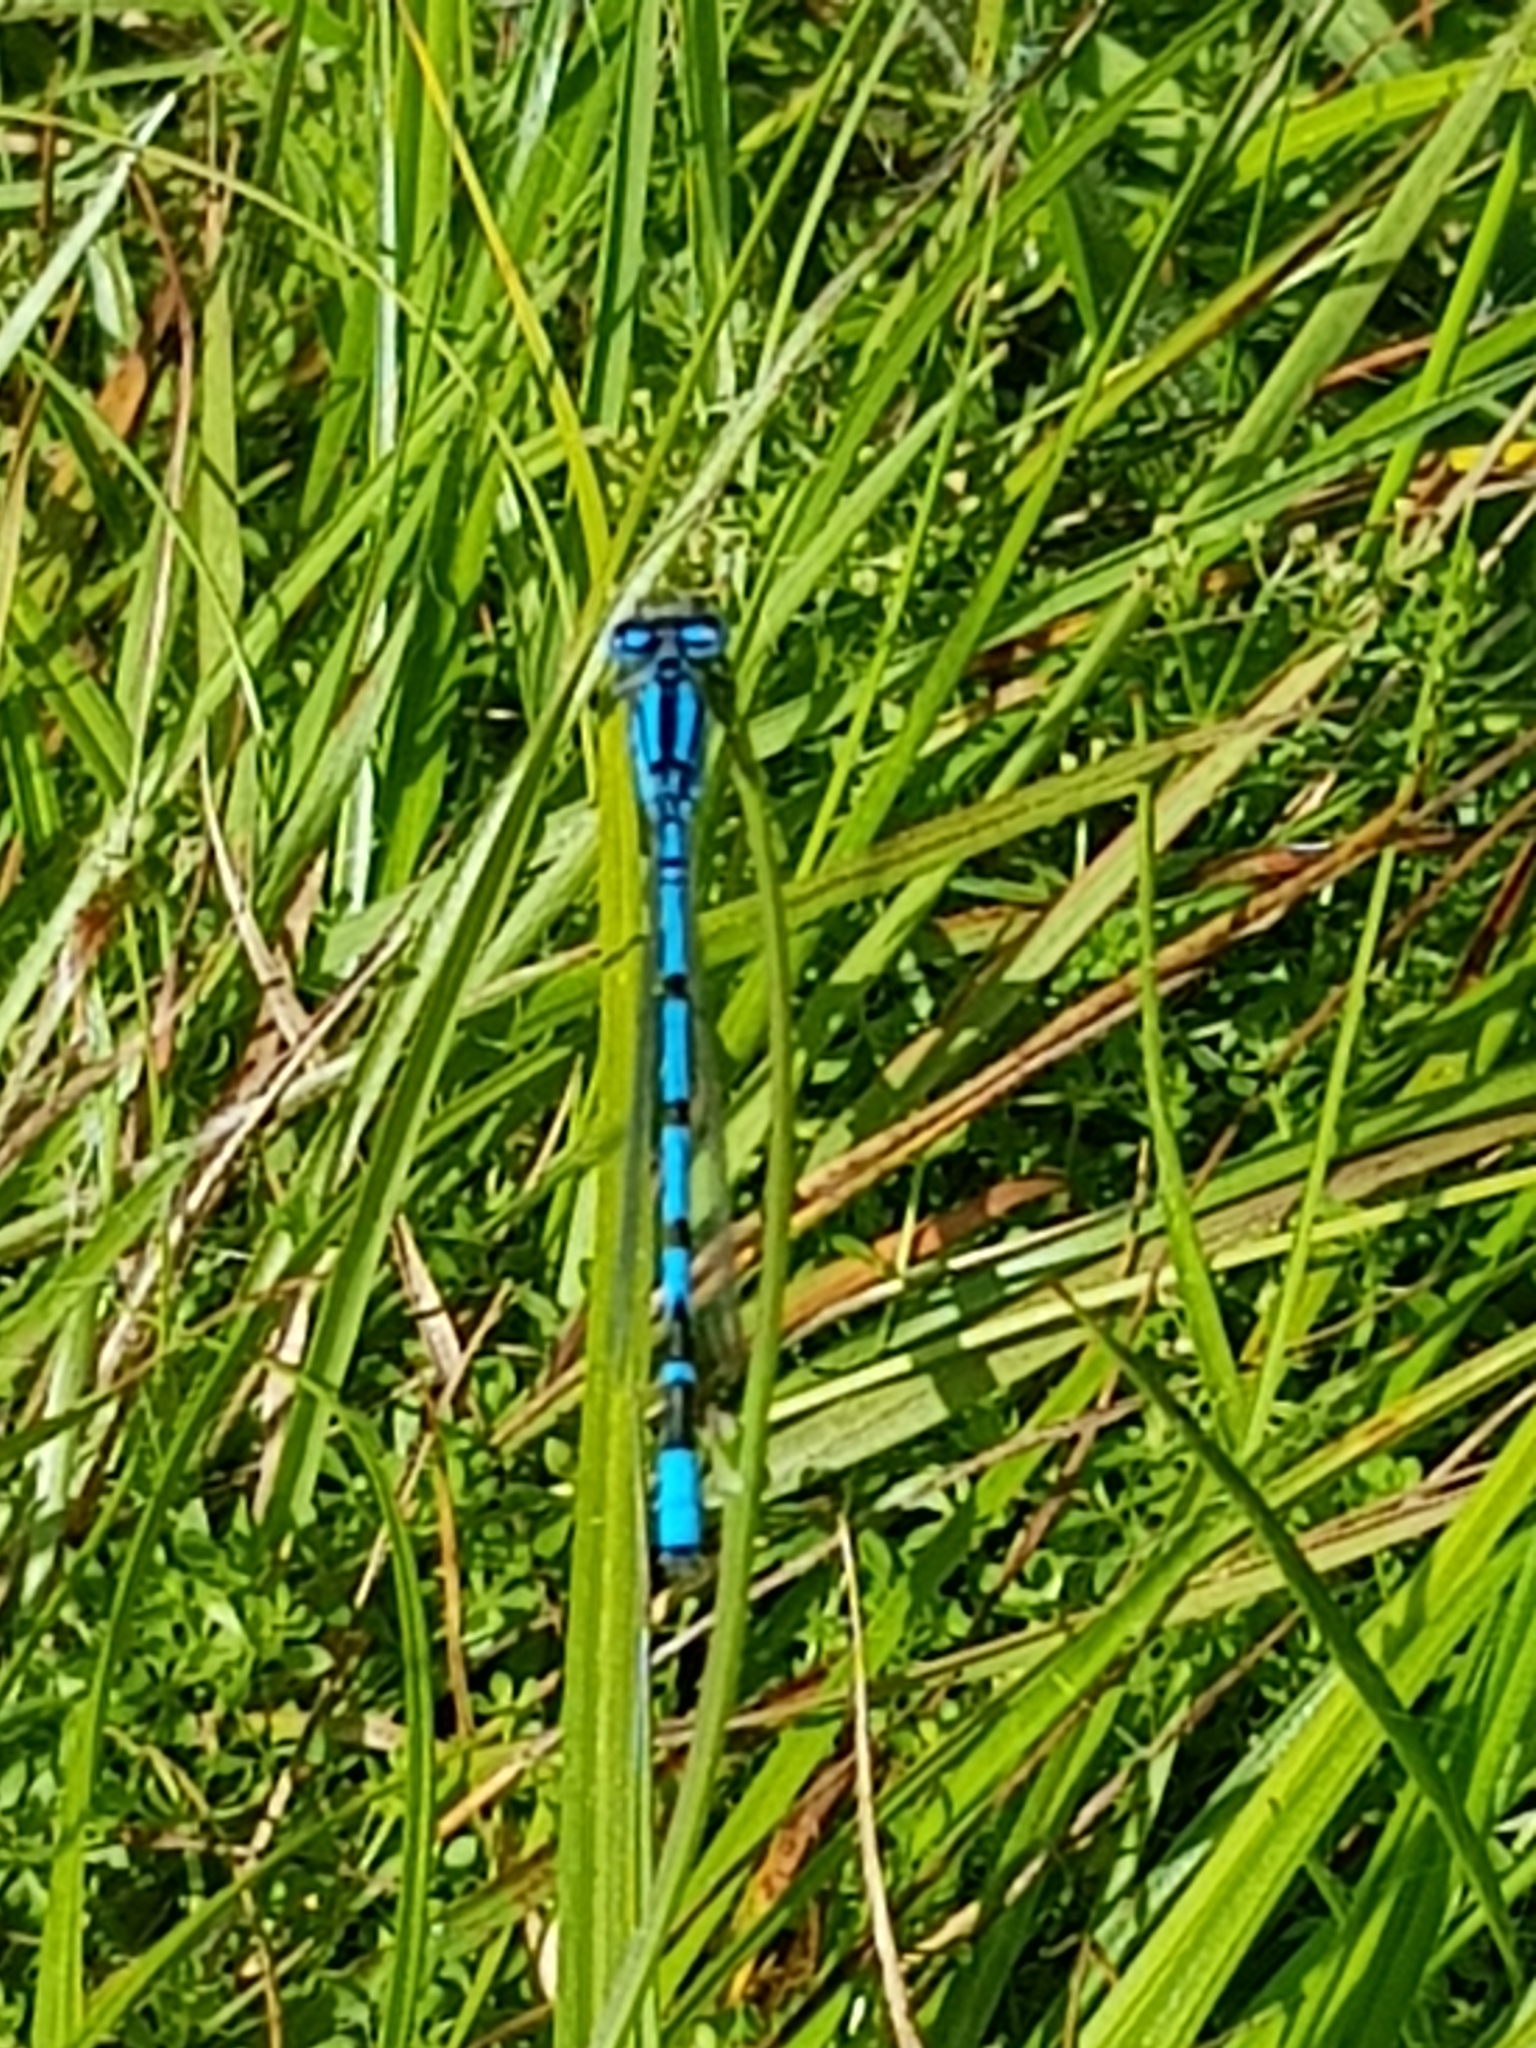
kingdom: Animalia
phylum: Arthropoda
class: Insecta
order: Odonata
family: Coenagrionidae
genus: Coenagrion
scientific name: Coenagrion puella
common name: Azure damselfly
